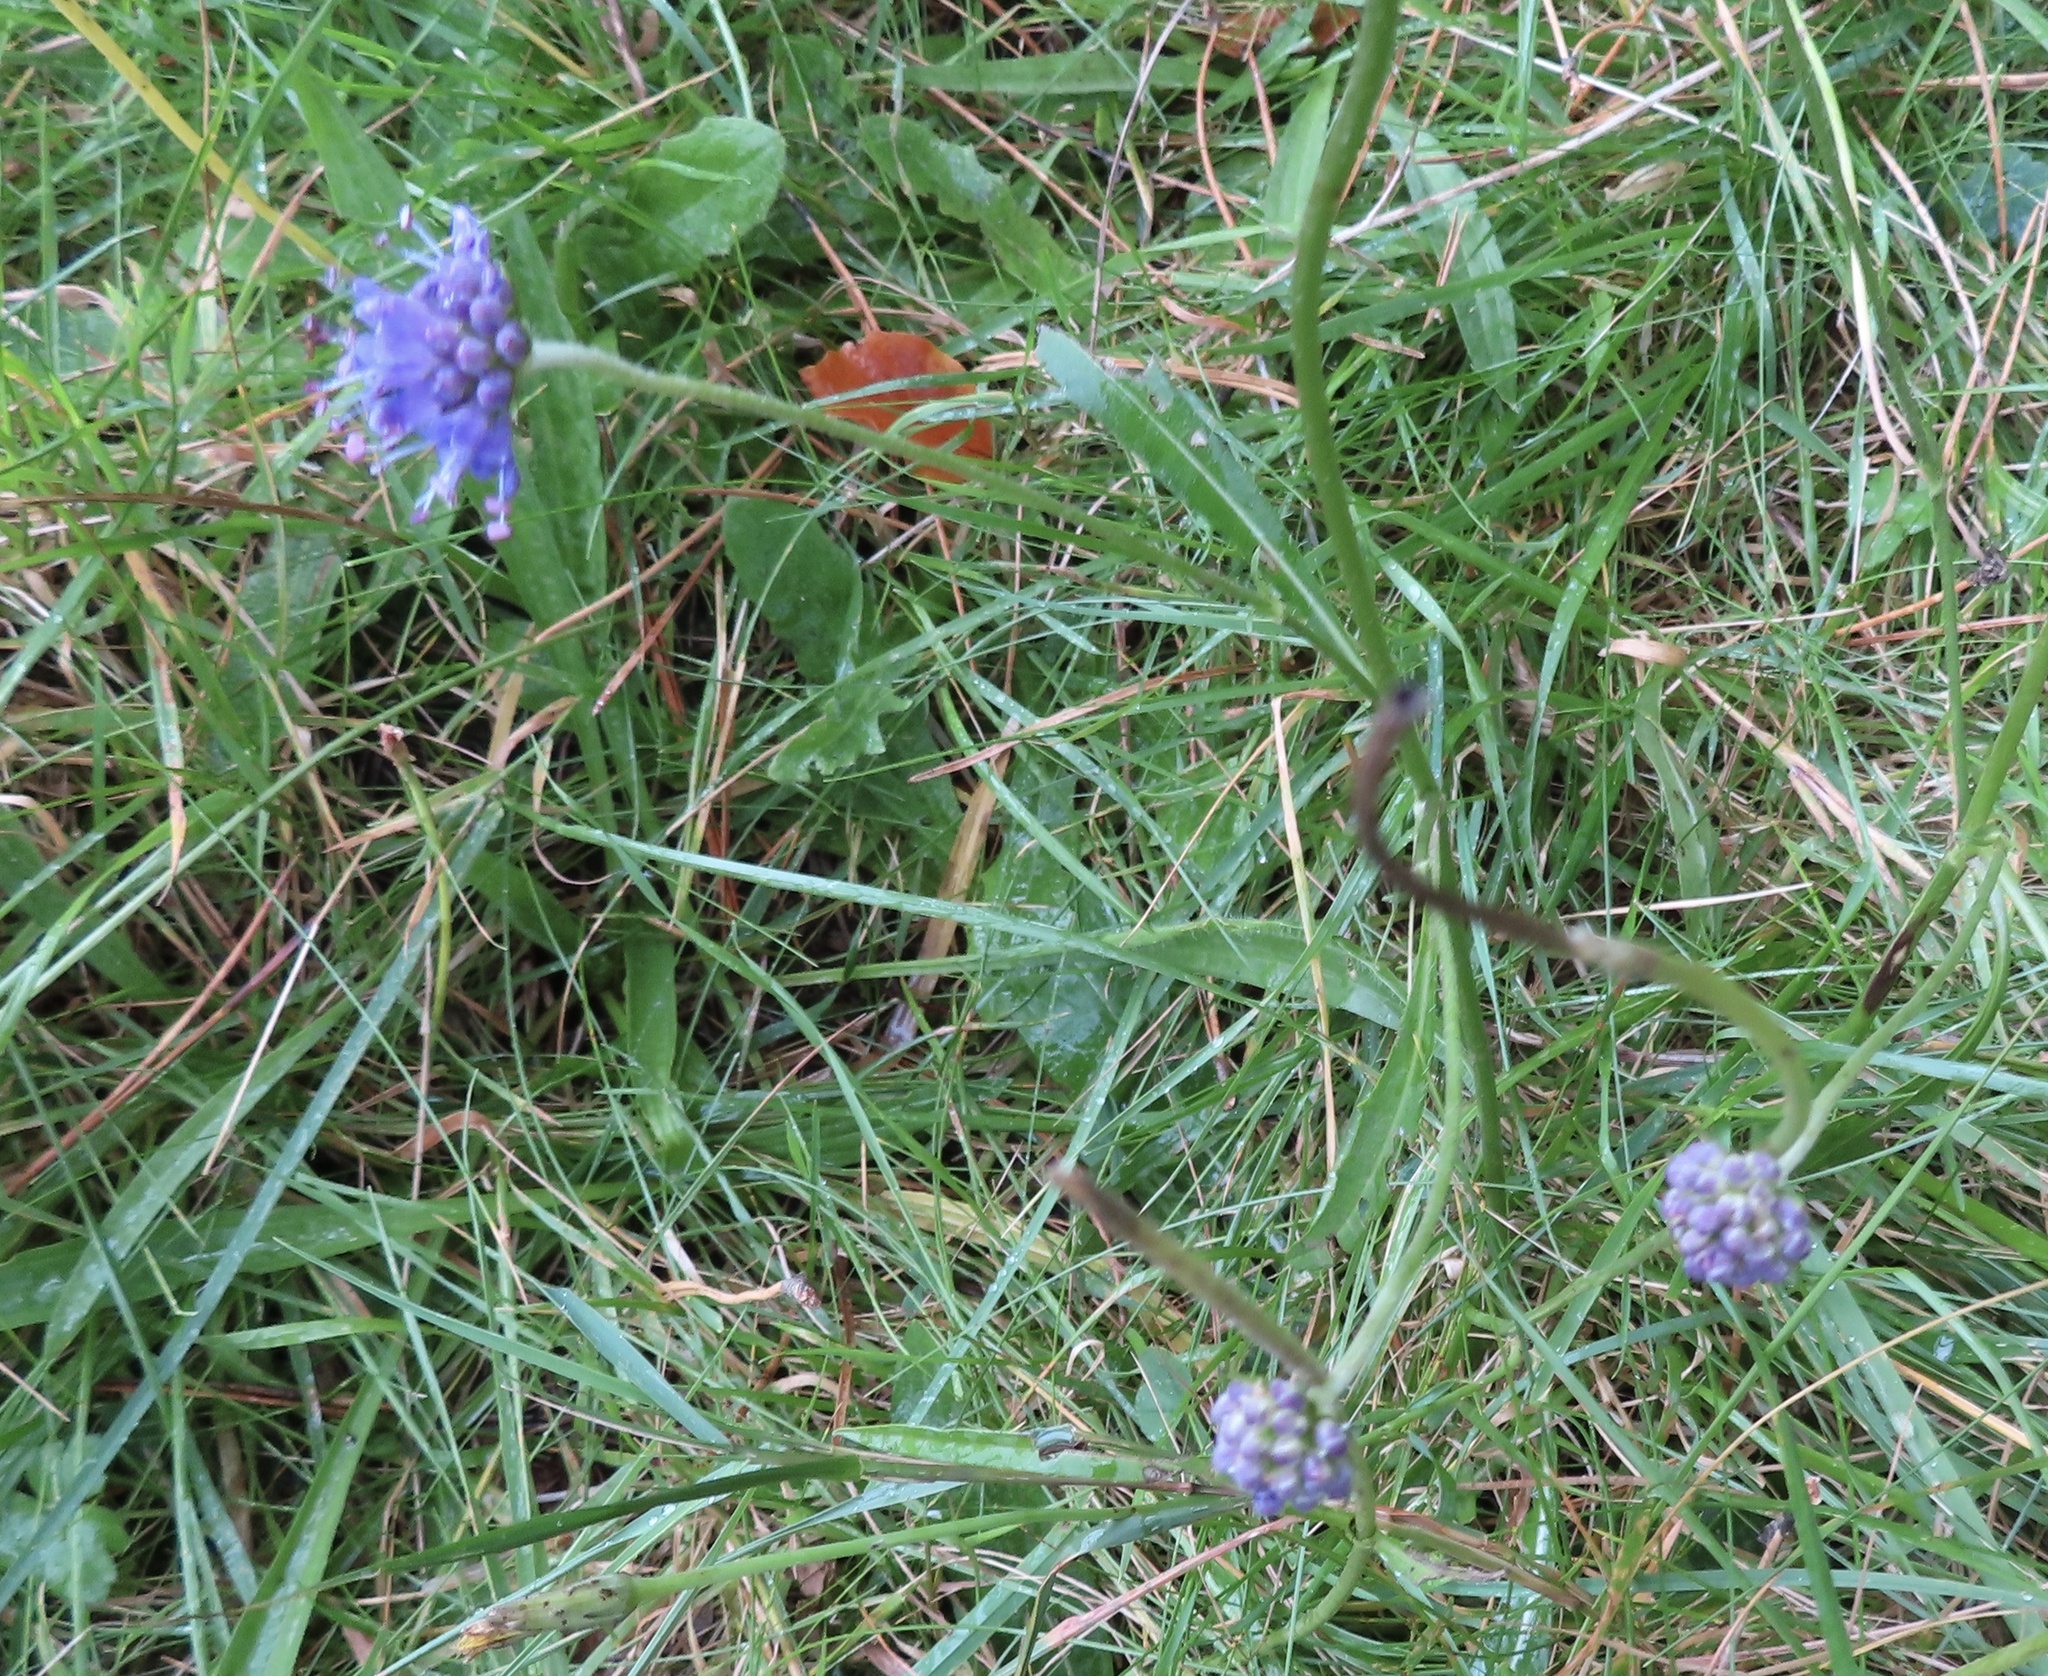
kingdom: Plantae
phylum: Tracheophyta
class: Magnoliopsida
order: Dipsacales
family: Caprifoliaceae
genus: Succisa
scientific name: Succisa pratensis
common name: Devil's-bit
